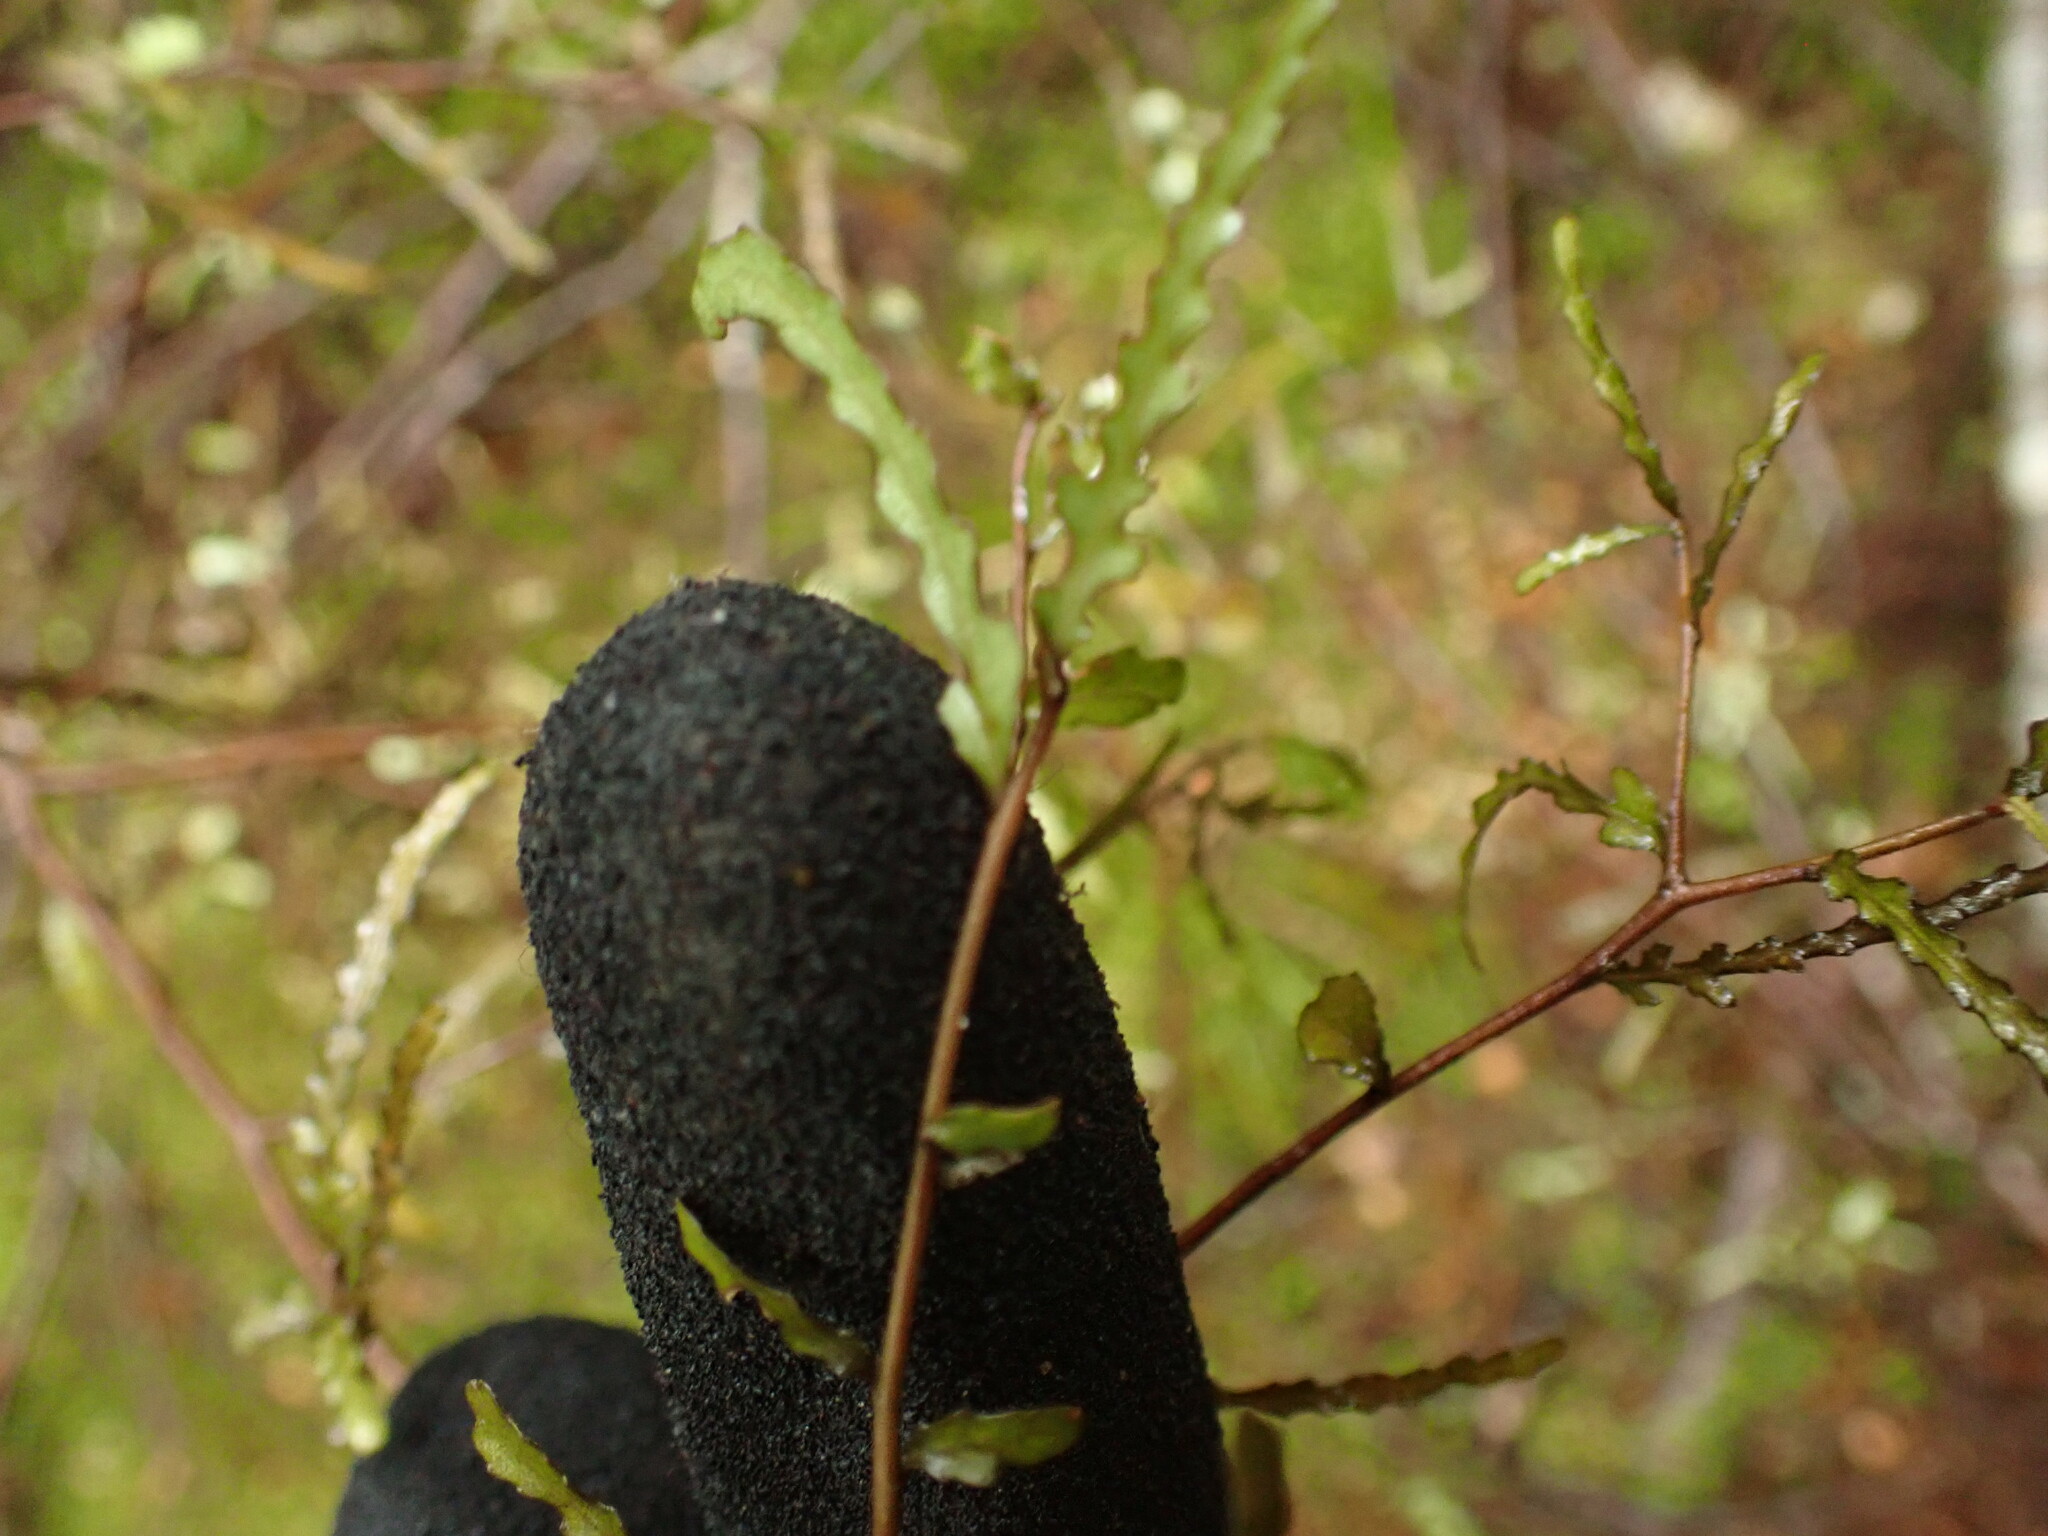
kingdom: Plantae
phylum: Tracheophyta
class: Magnoliopsida
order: Oxalidales
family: Elaeocarpaceae
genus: Elaeocarpus
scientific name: Elaeocarpus hookerianus
